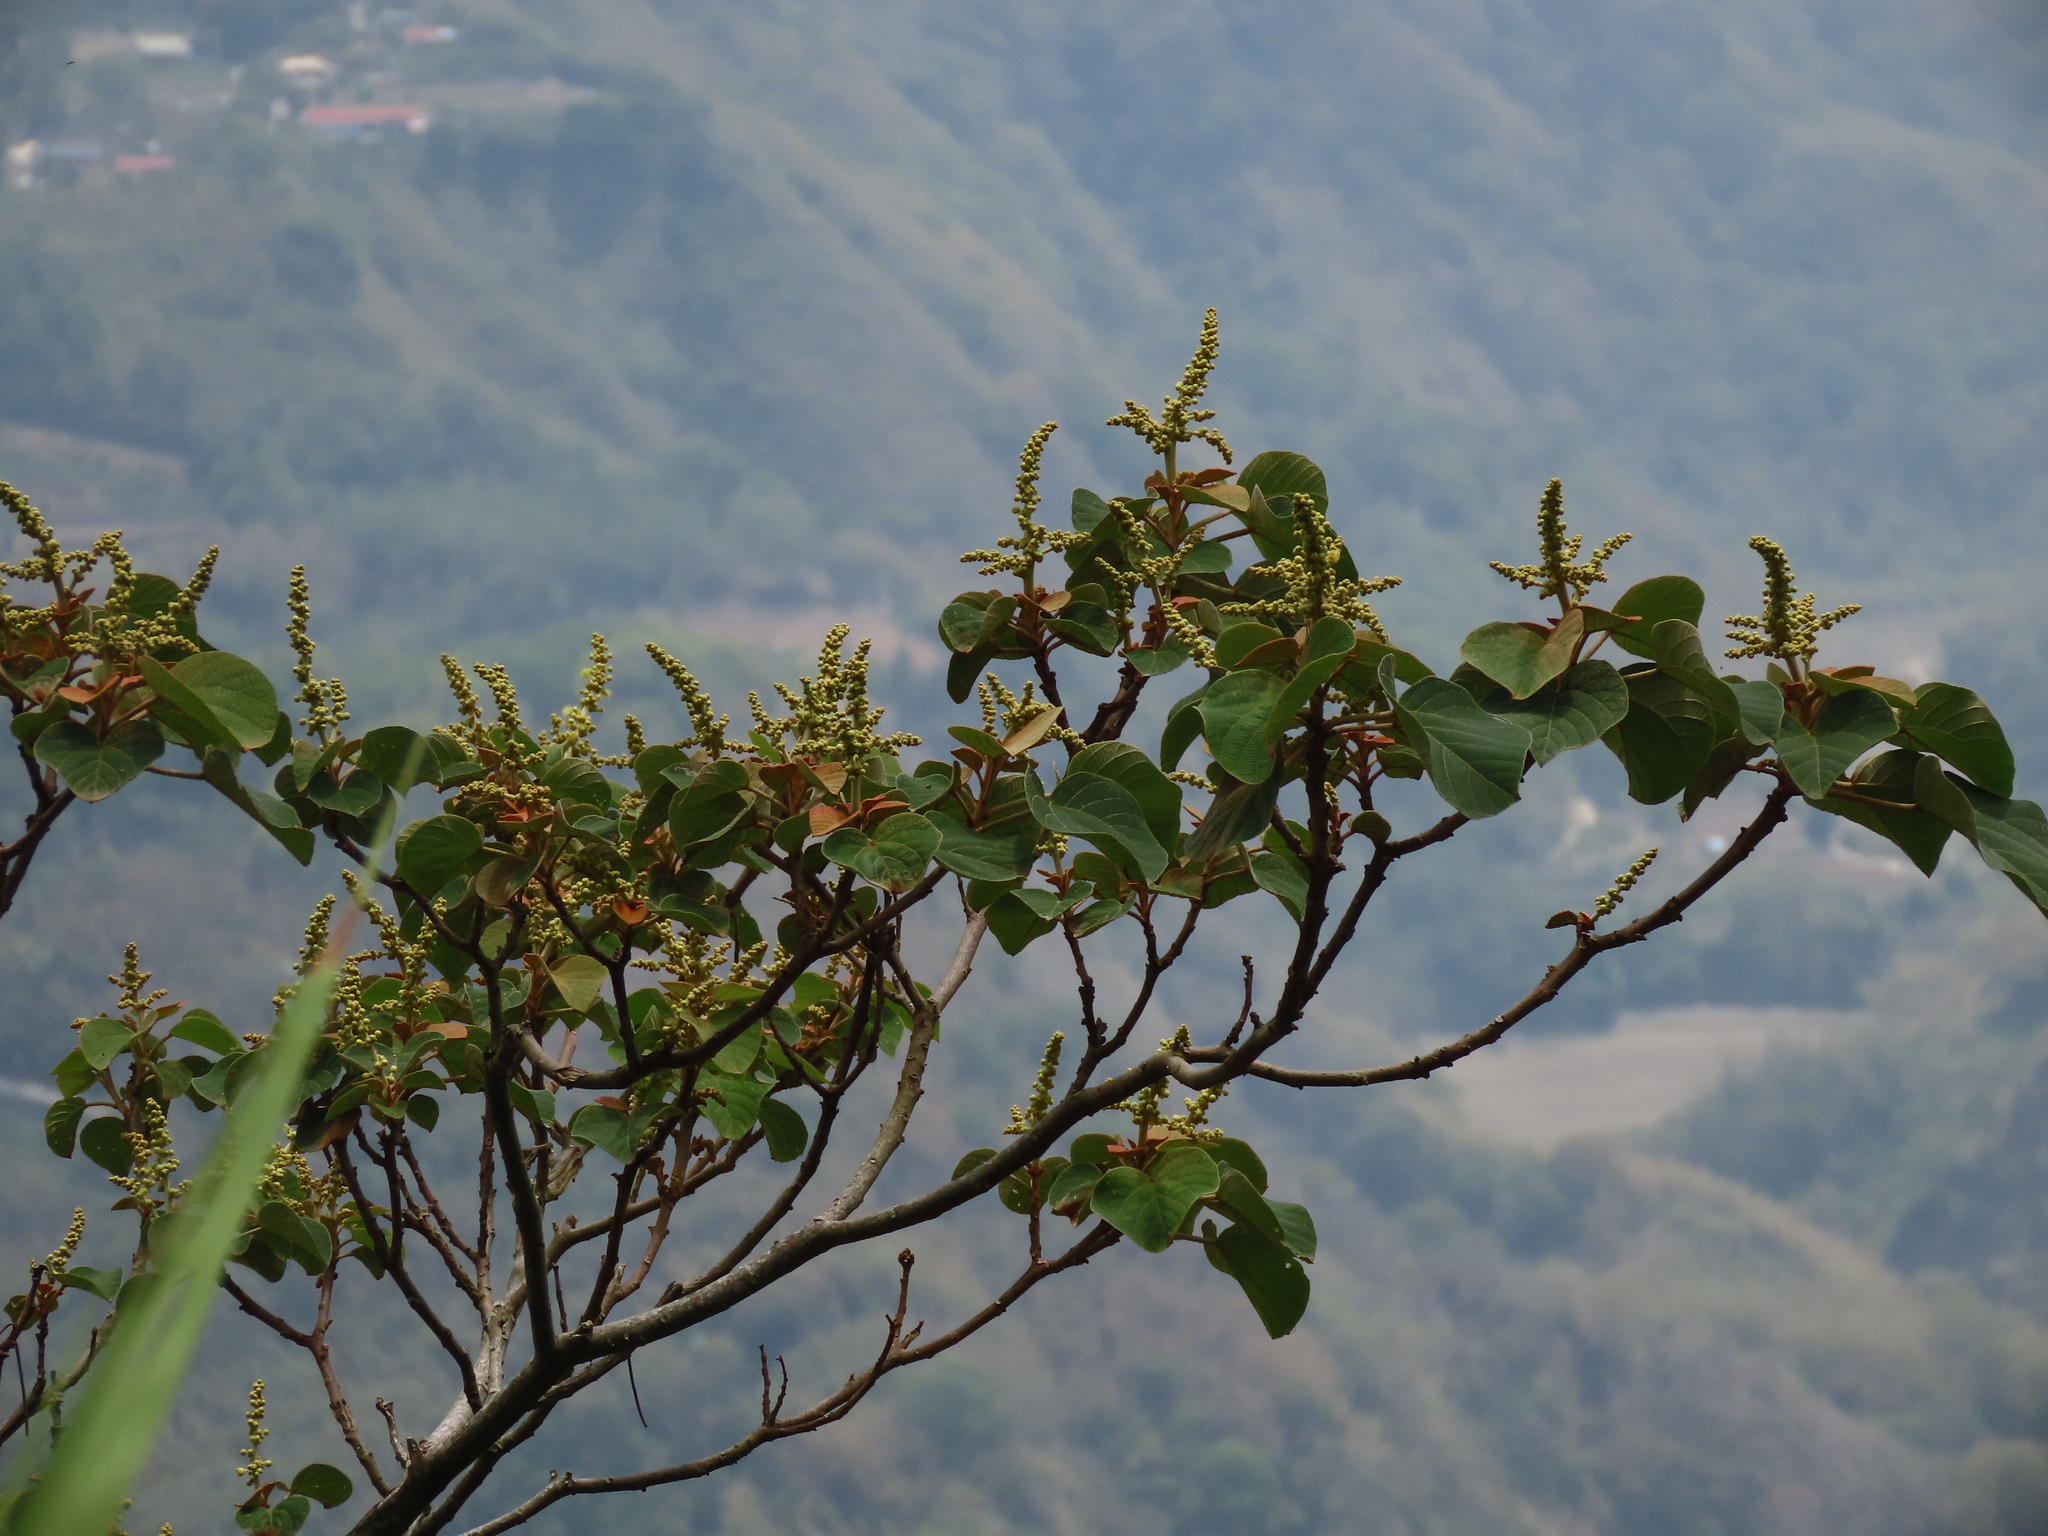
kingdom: Plantae
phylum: Tracheophyta
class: Magnoliopsida
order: Malpighiales
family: Euphorbiaceae
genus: Mallotus
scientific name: Mallotus japonicus
